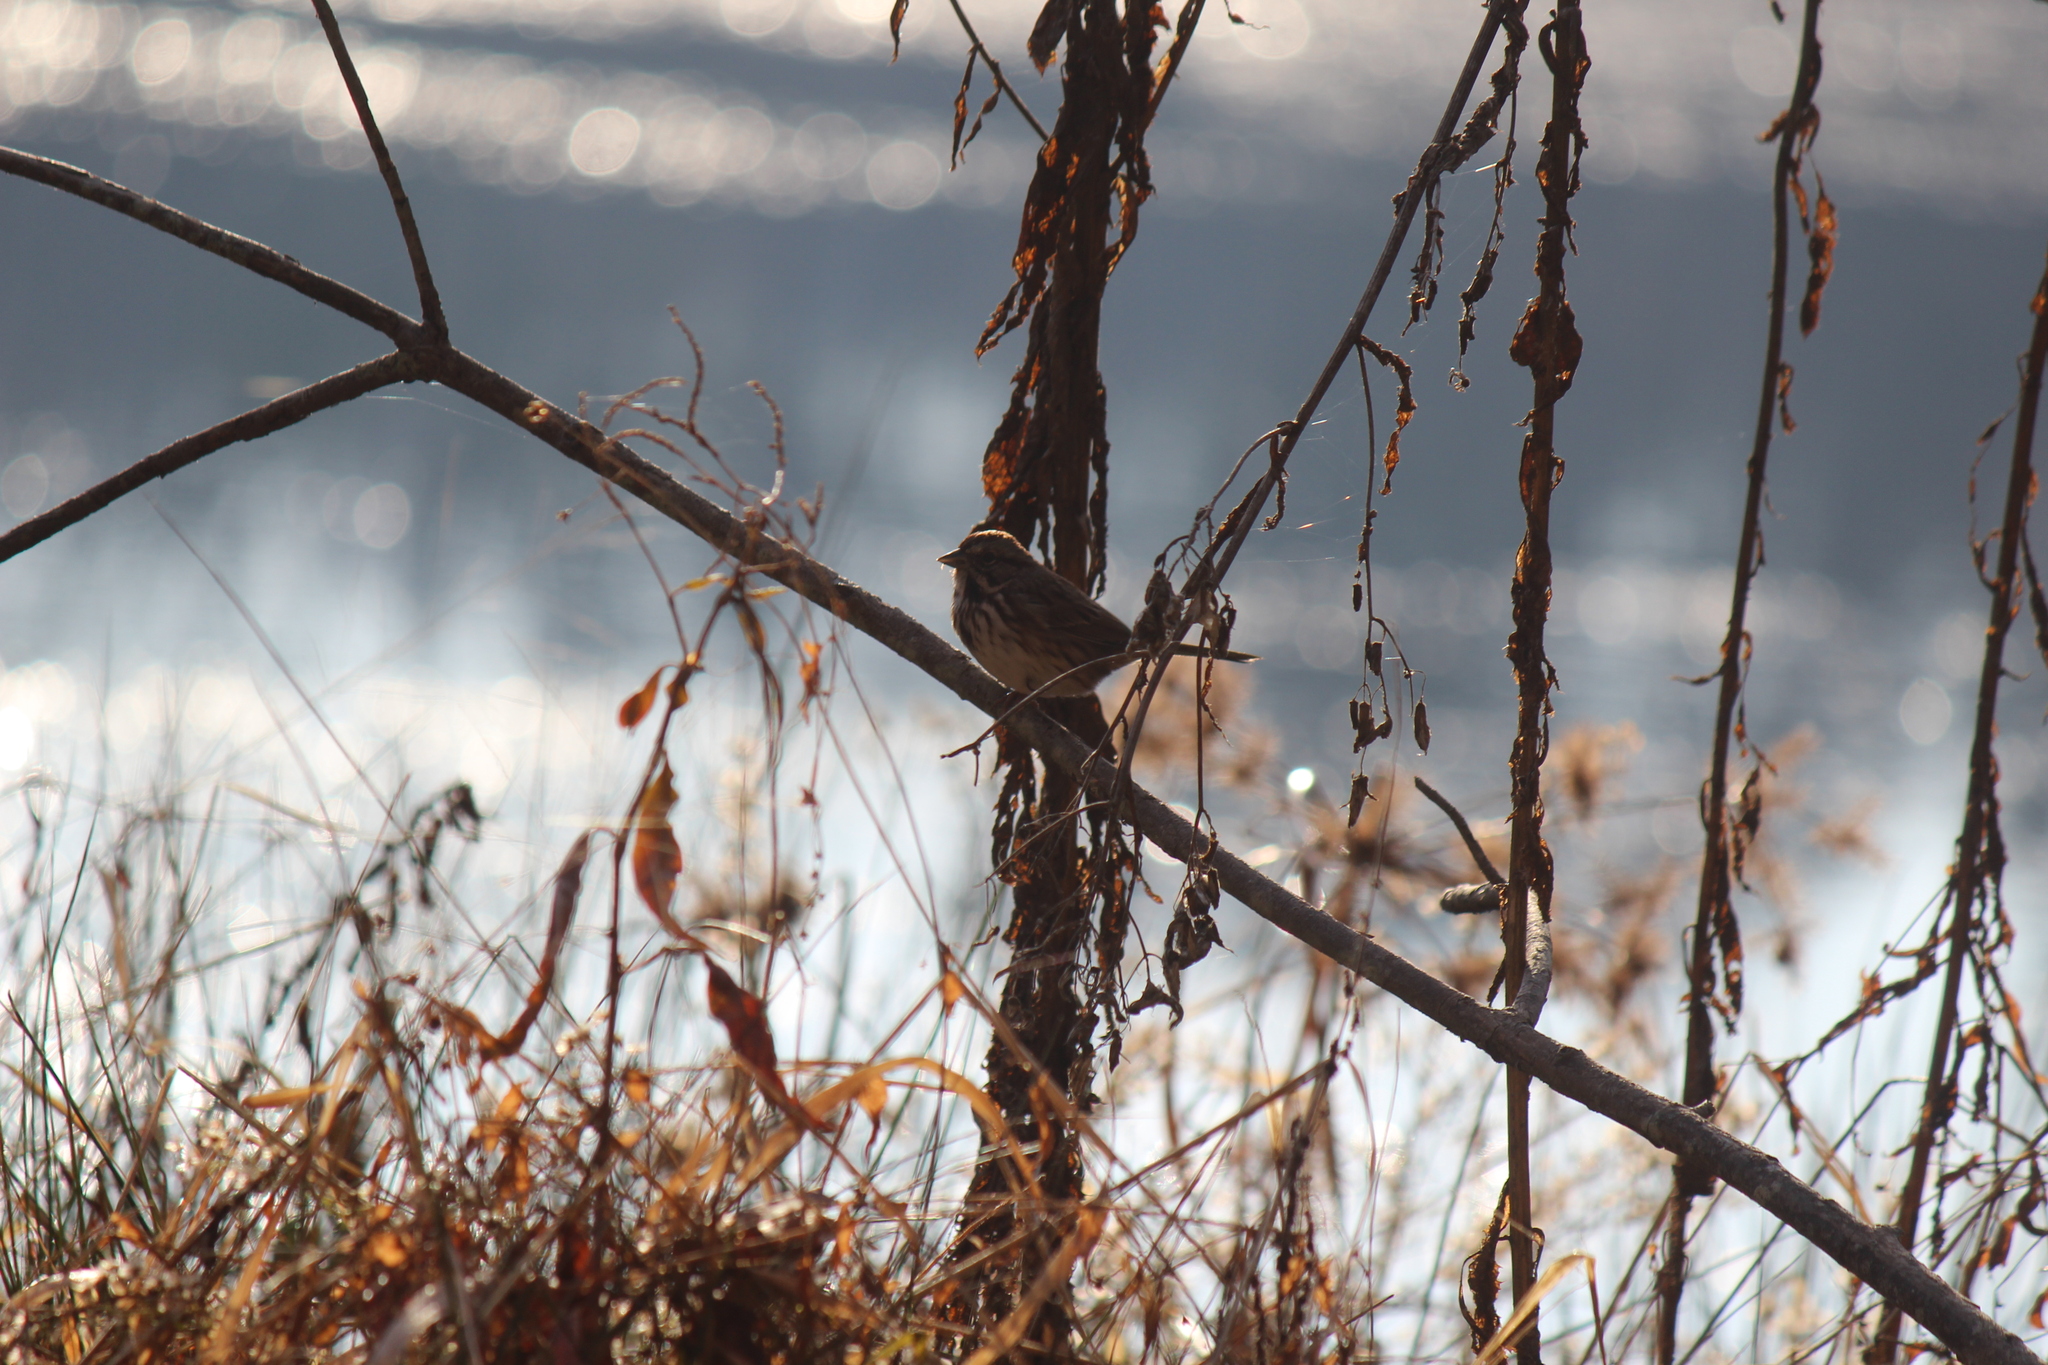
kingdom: Animalia
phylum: Chordata
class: Aves
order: Passeriformes
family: Passerellidae
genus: Melospiza
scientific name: Melospiza melodia
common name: Song sparrow
